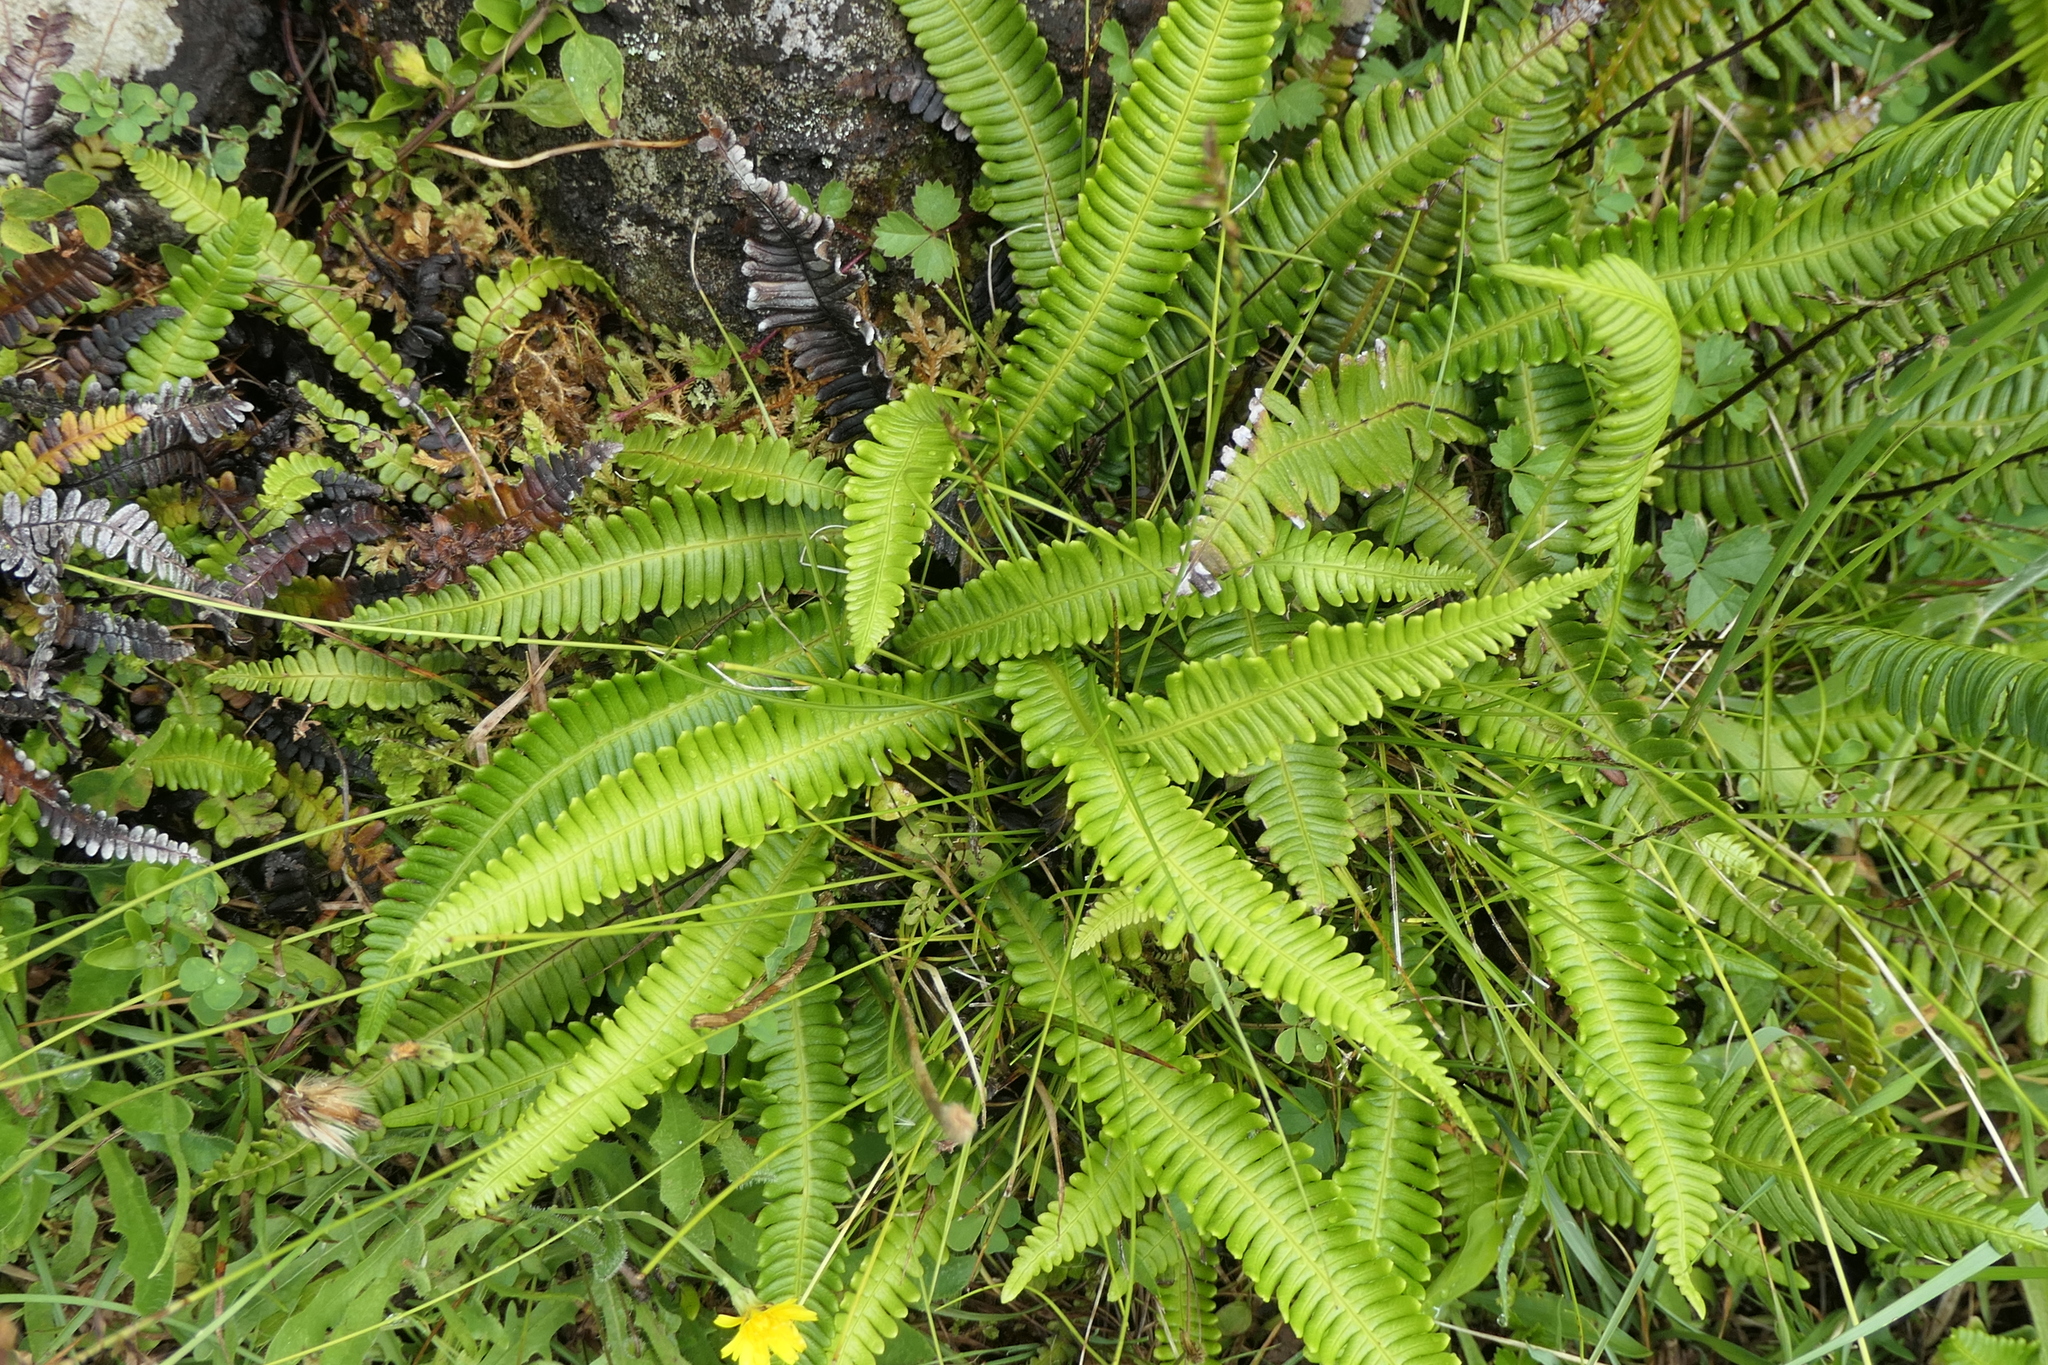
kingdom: Plantae
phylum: Tracheophyta
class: Polypodiopsida
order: Polypodiales
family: Blechnaceae
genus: Struthiopteris
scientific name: Struthiopteris spicant
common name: Deer fern
